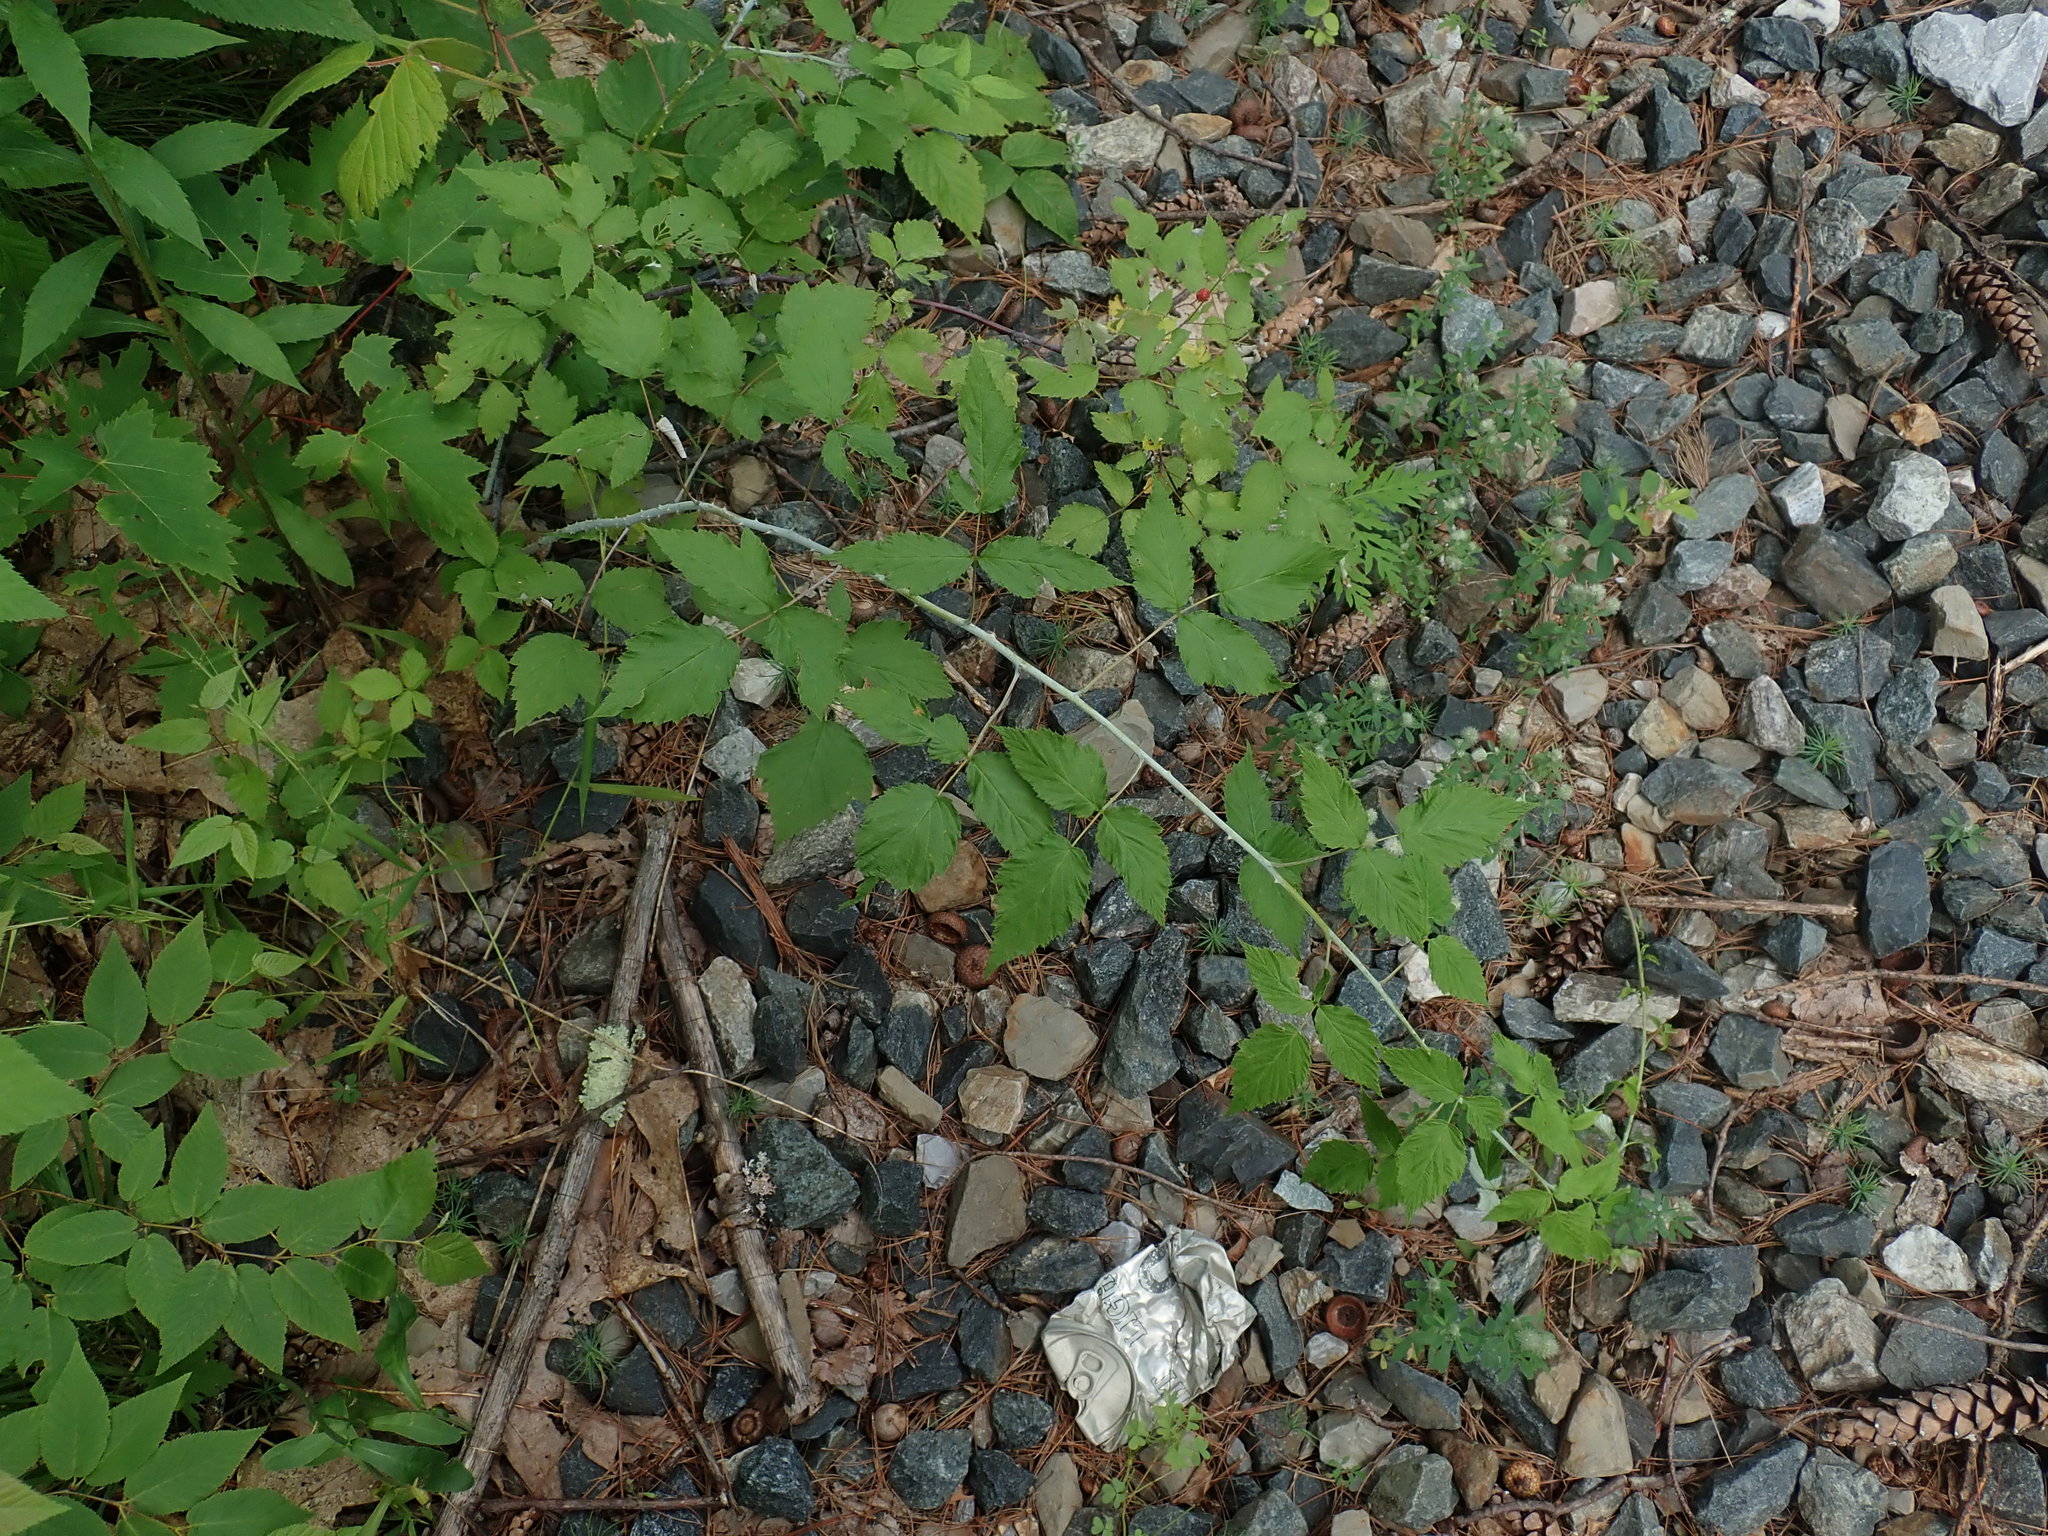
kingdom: Plantae
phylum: Tracheophyta
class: Magnoliopsida
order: Rosales
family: Rosaceae
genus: Rubus
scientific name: Rubus occidentalis
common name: Black raspberry
